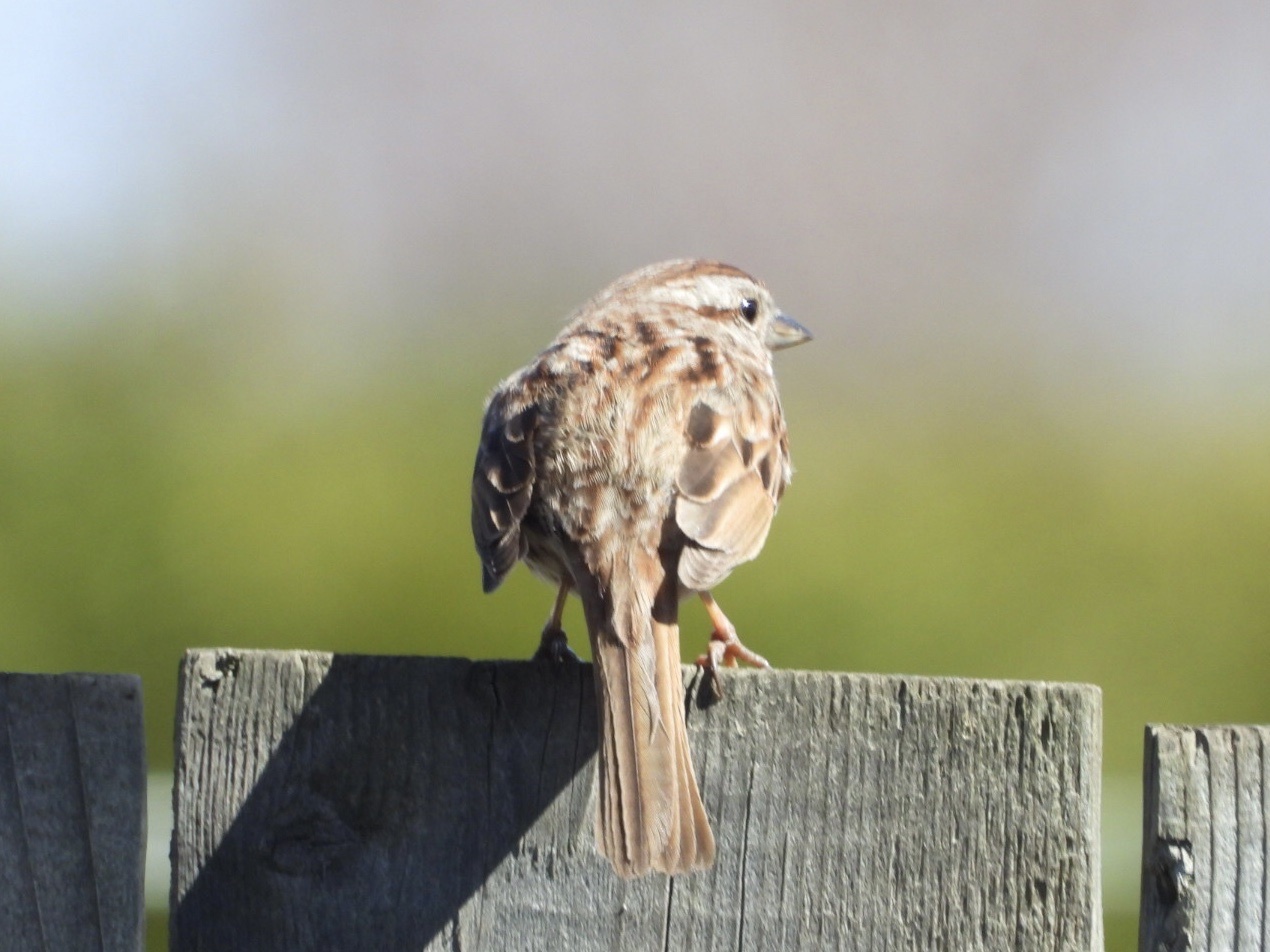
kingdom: Animalia
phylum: Chordata
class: Aves
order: Passeriformes
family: Passerellidae
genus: Melospiza
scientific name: Melospiza melodia
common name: Song sparrow
